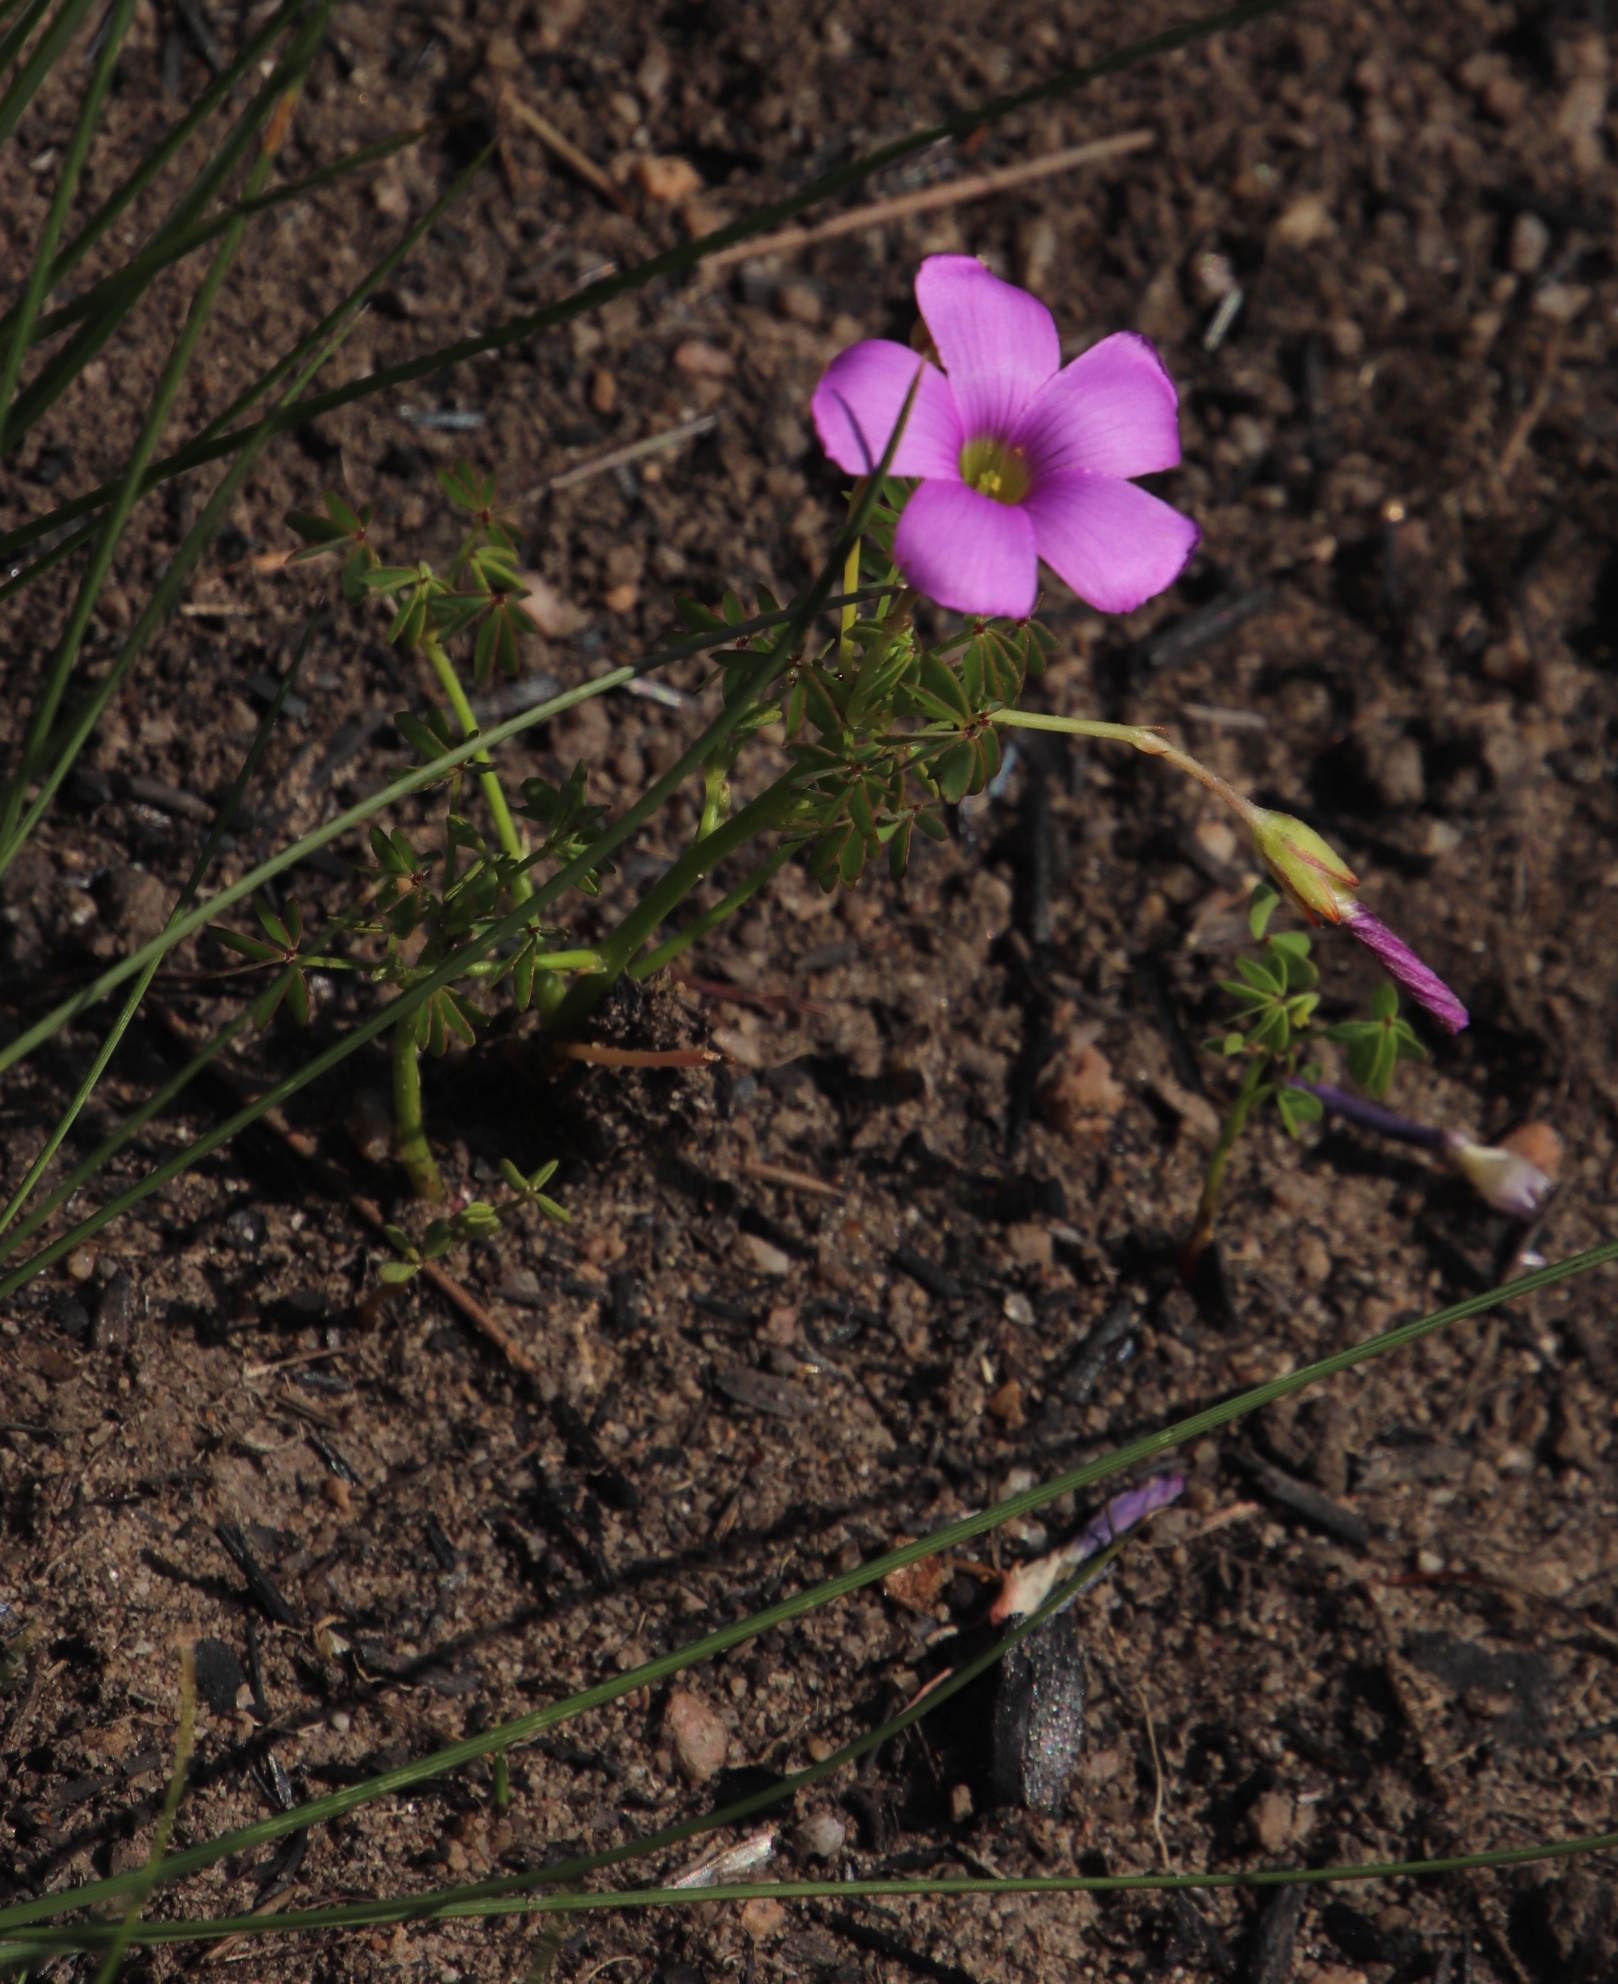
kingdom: Plantae
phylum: Tracheophyta
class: Magnoliopsida
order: Oxalidales
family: Oxalidaceae
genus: Oxalis
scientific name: Oxalis bifida
